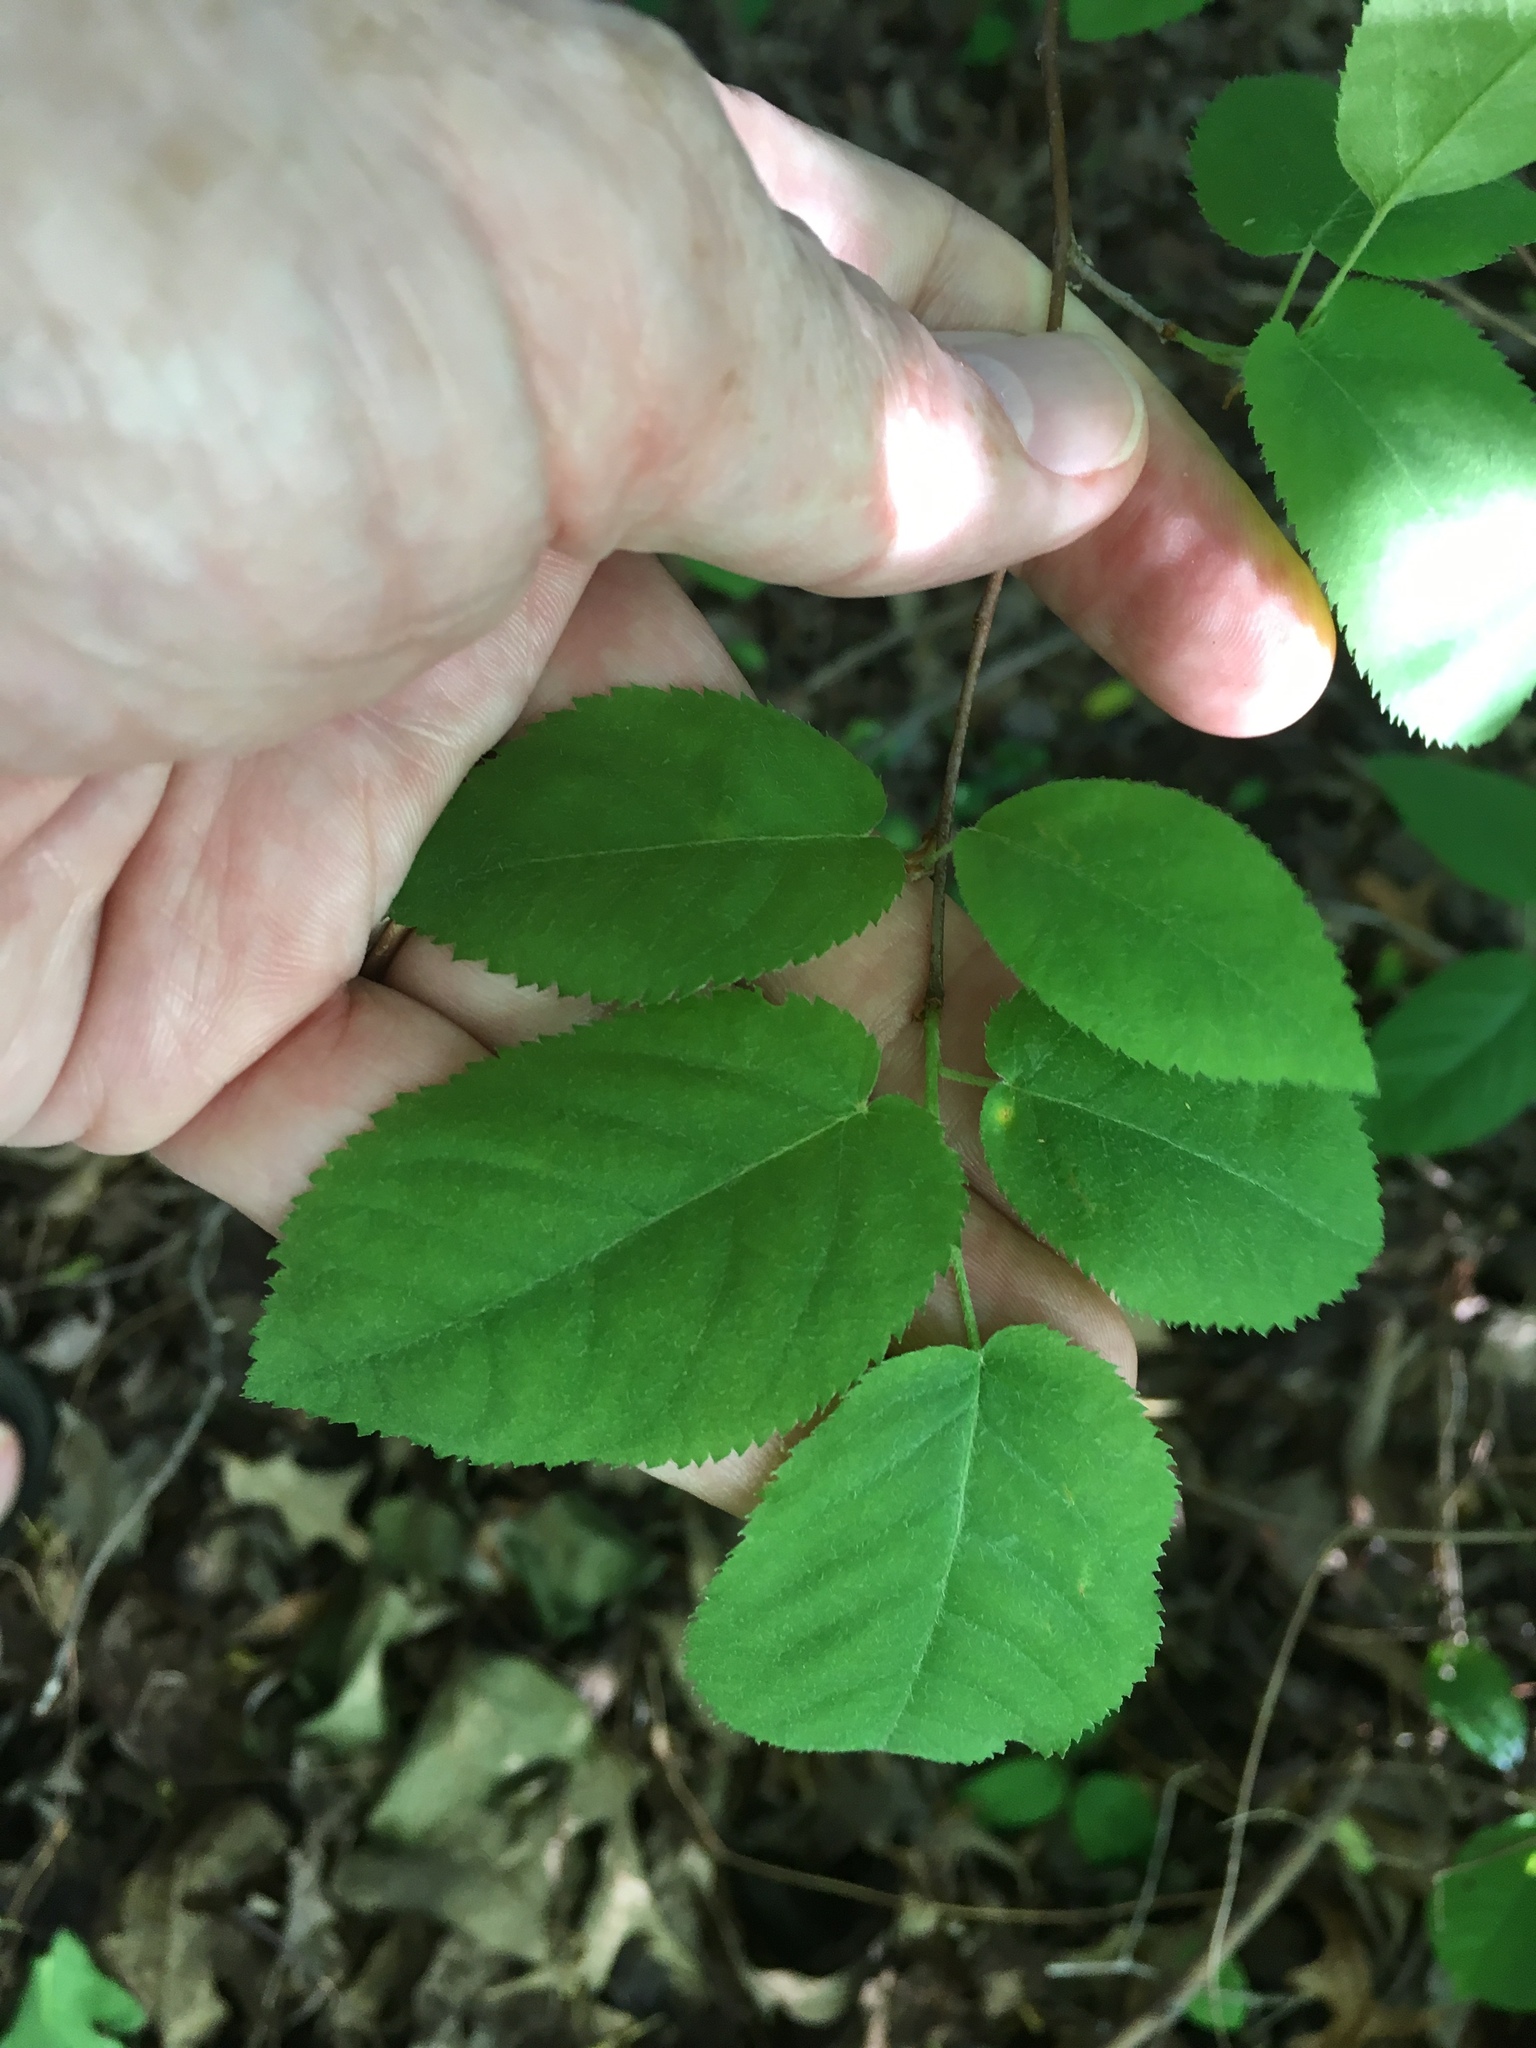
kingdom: Plantae
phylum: Tracheophyta
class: Magnoliopsida
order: Rosales
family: Rosaceae
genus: Amelanchier
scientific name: Amelanchier arborea
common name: Downy serviceberry
